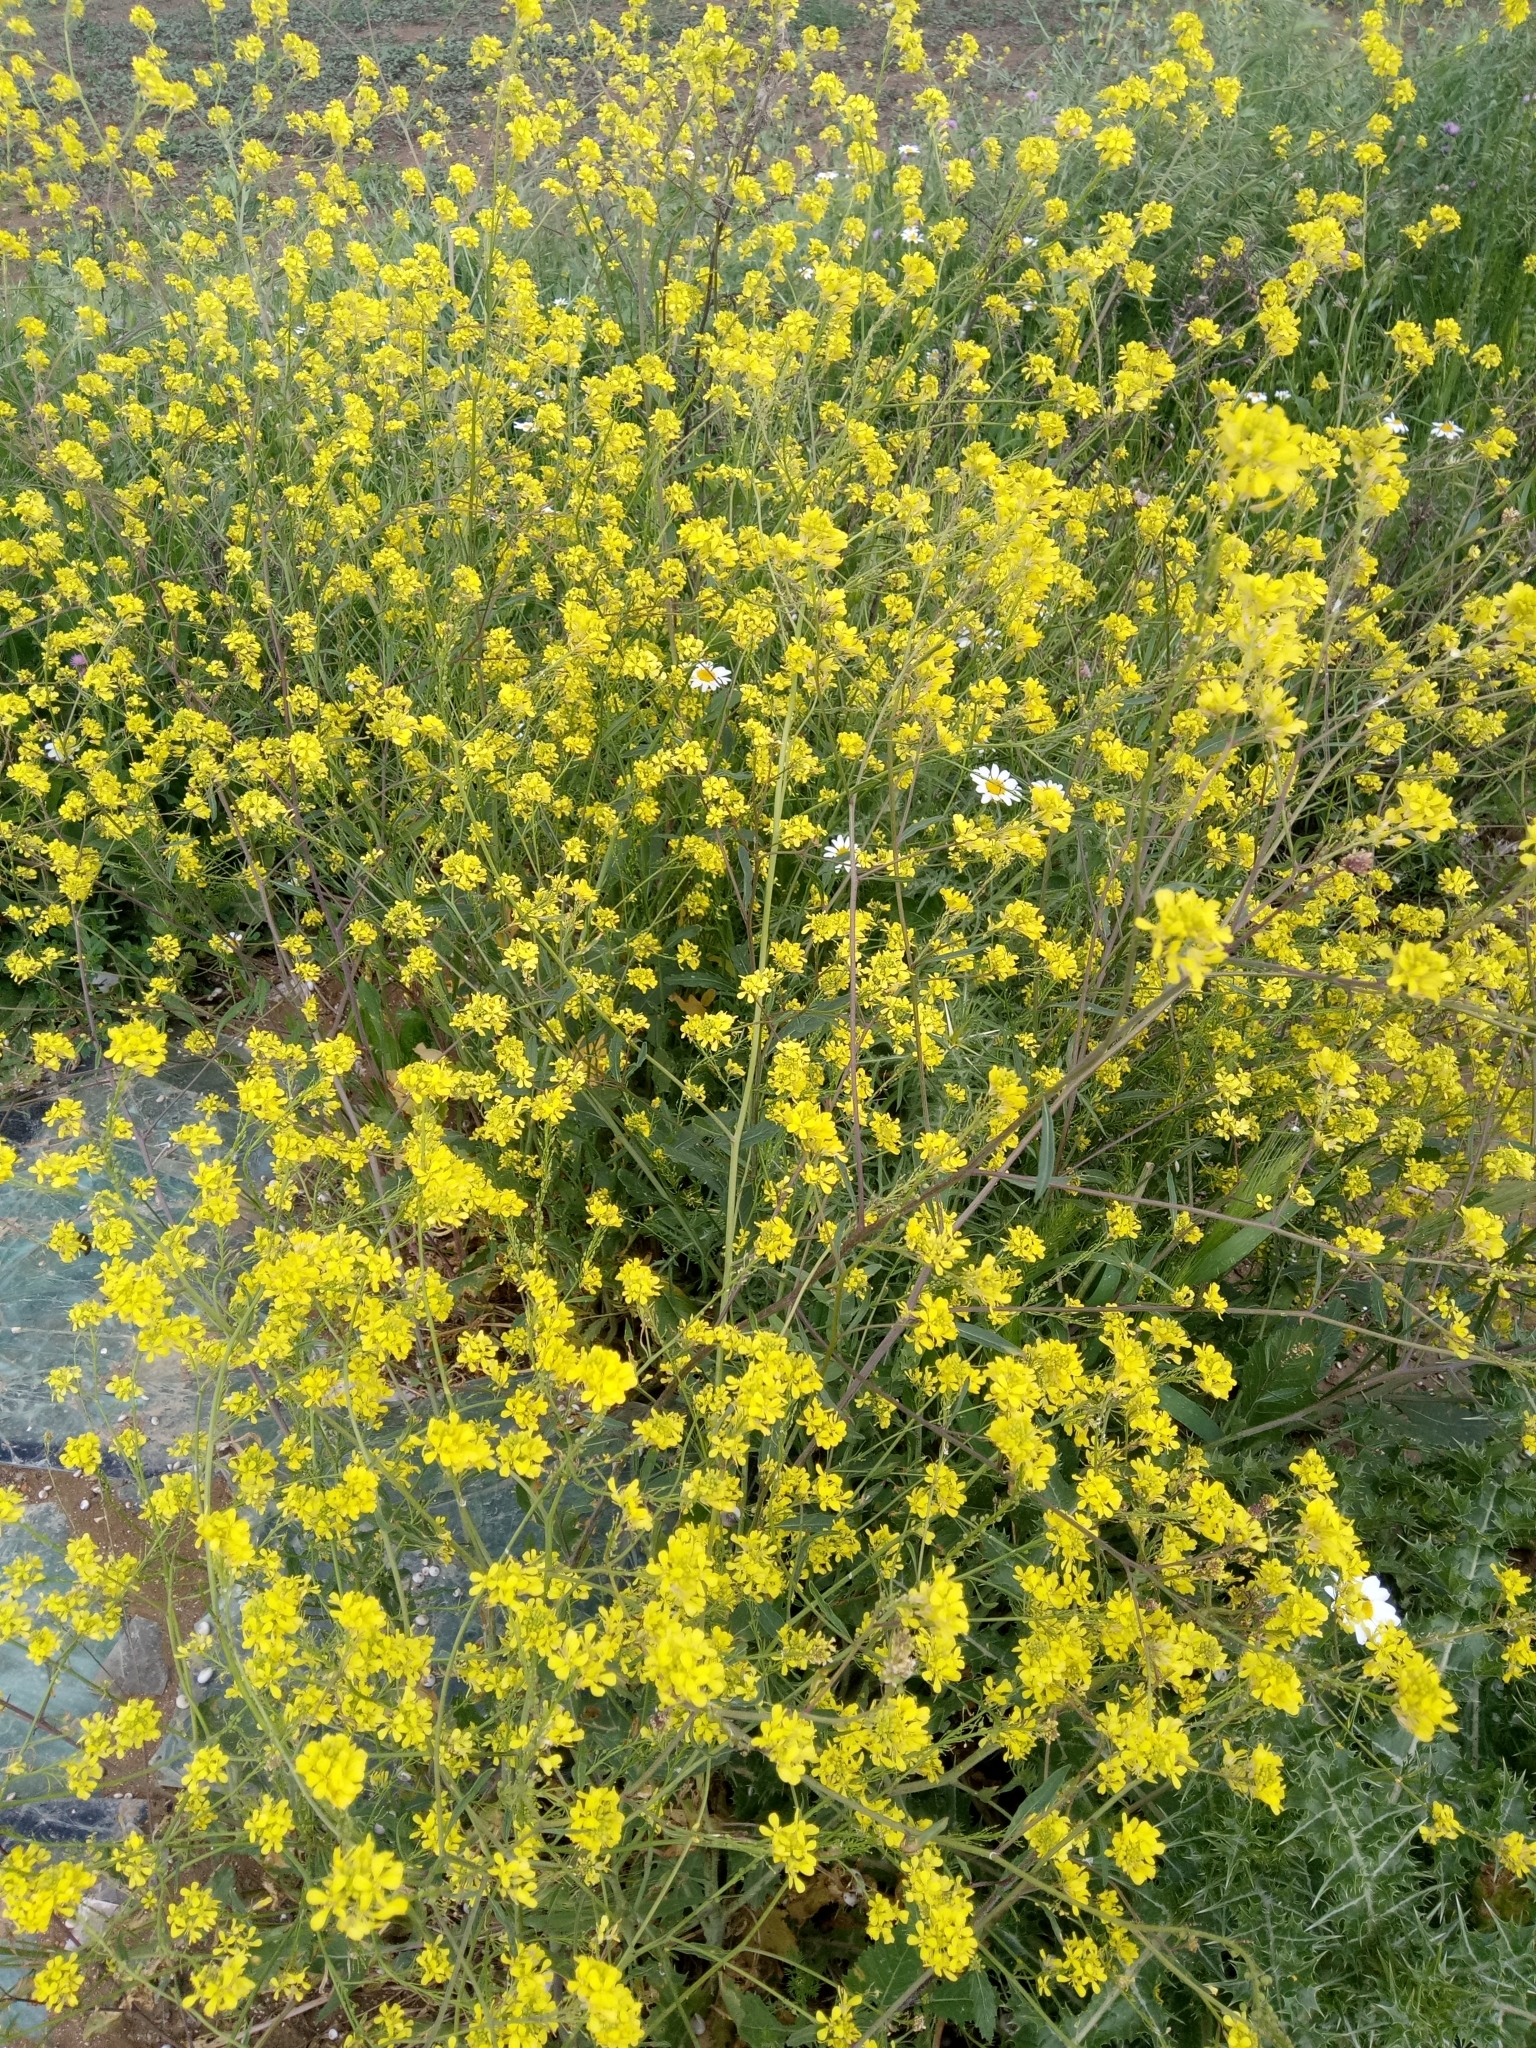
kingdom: Plantae
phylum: Tracheophyta
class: Magnoliopsida
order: Brassicales
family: Brassicaceae
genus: Rapistrum
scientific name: Rapistrum rugosum
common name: Annual bastardcabbage
